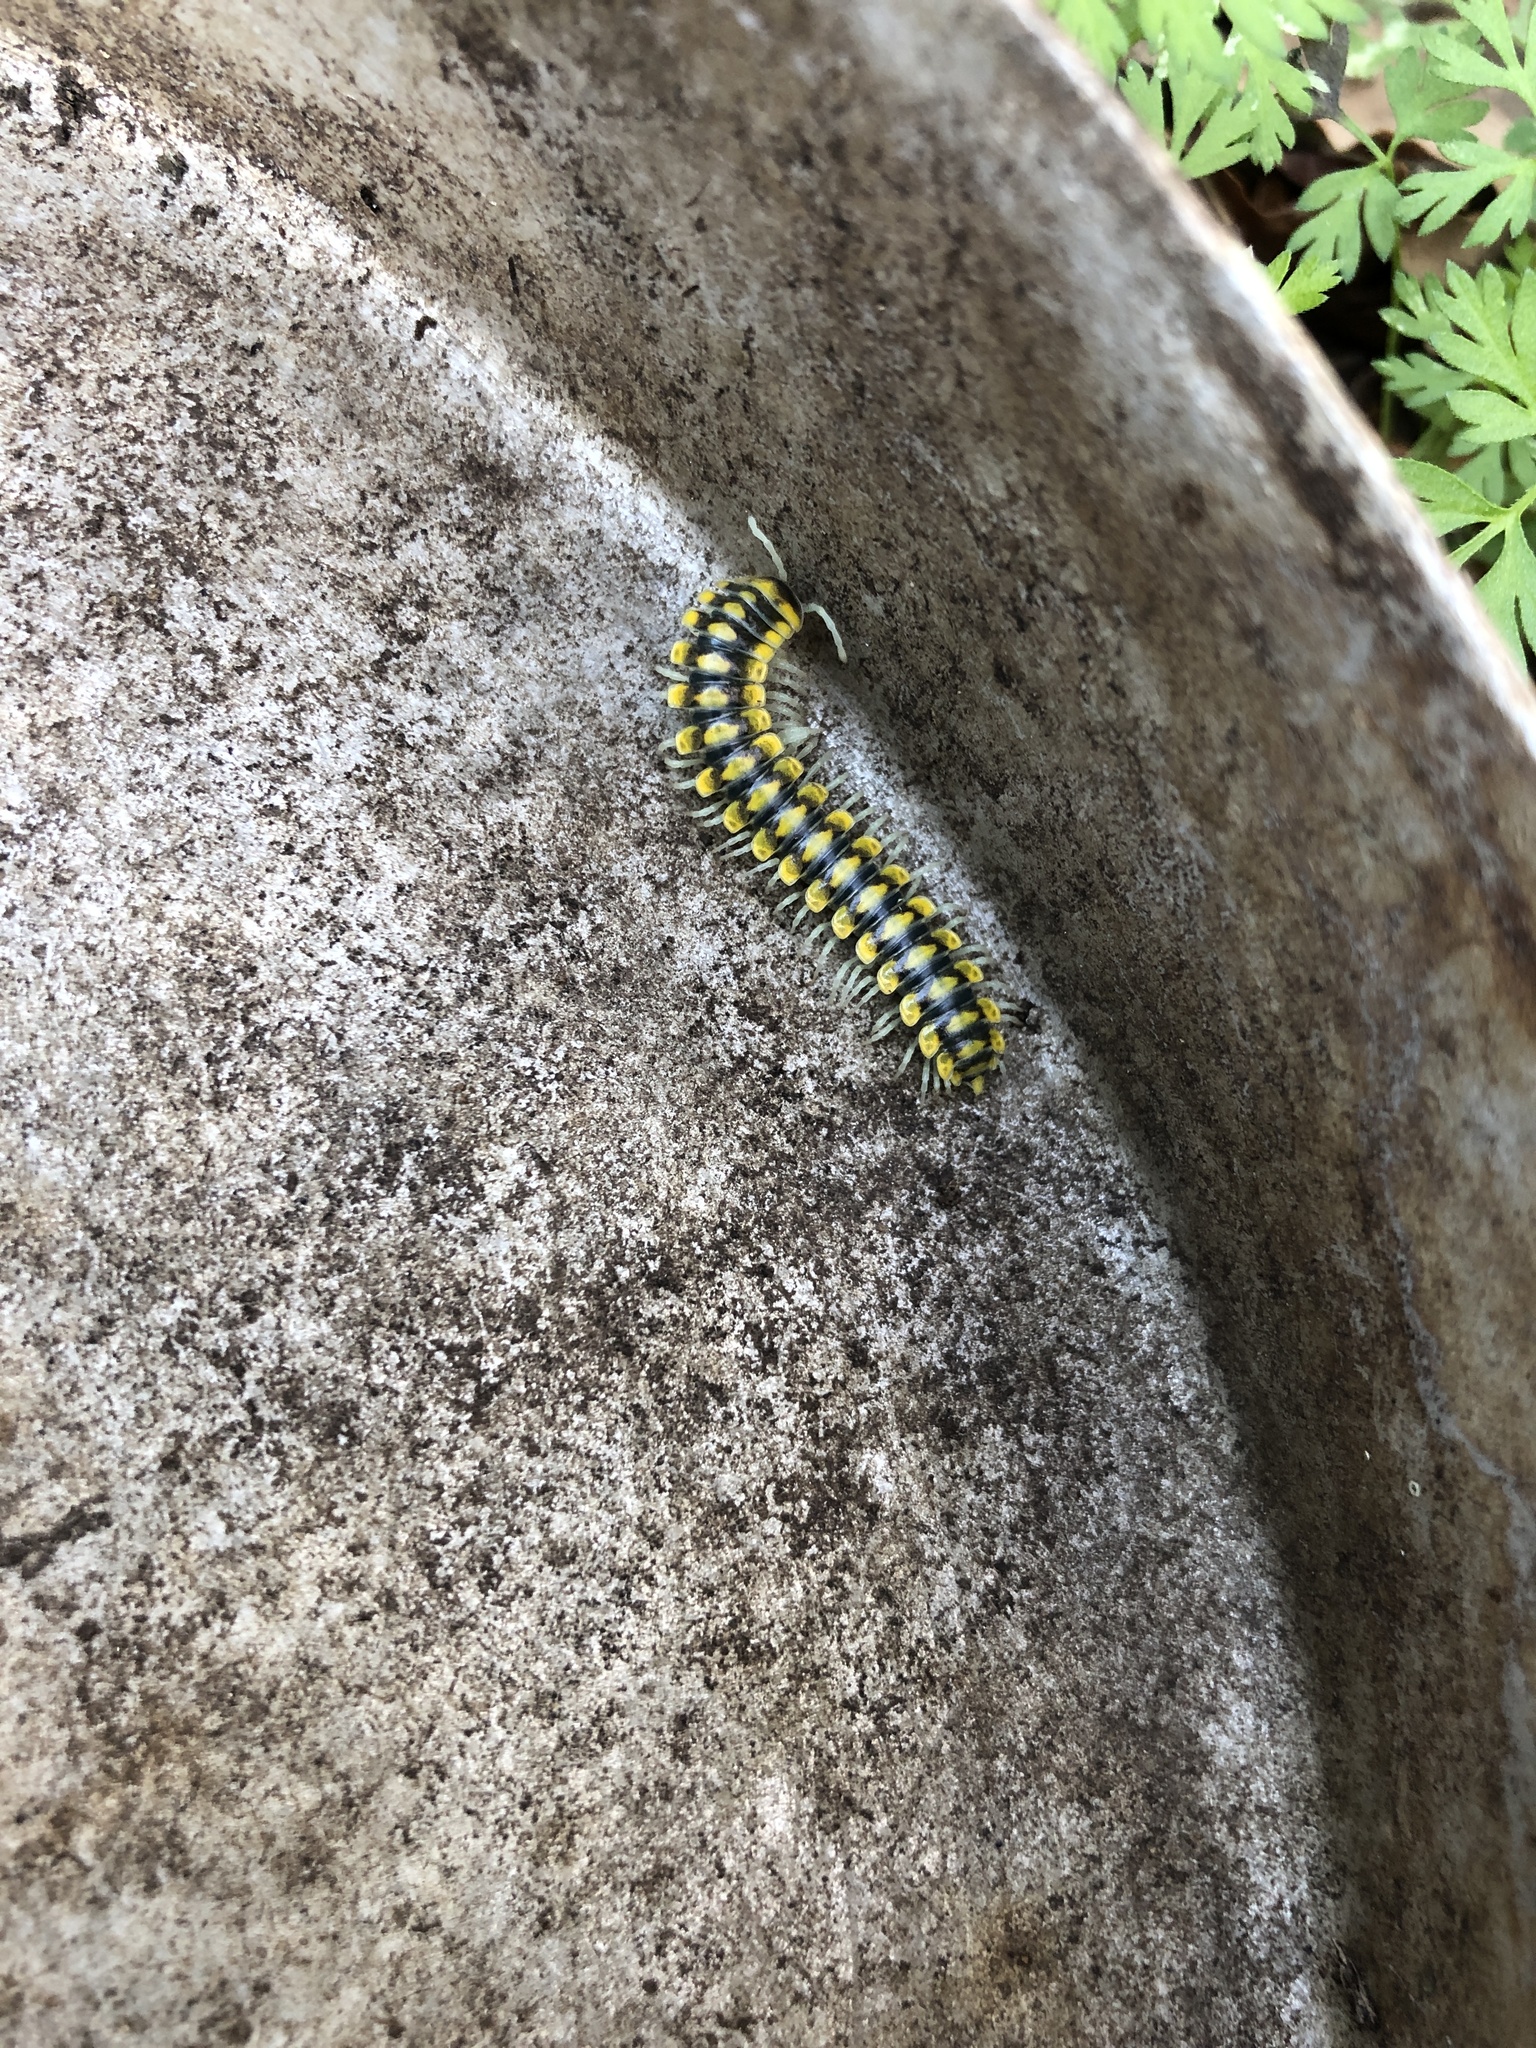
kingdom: Animalia
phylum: Arthropoda
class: Diplopoda
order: Polydesmida
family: Xystodesmidae
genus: Sigmocheir
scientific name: Sigmocheir calaveras
